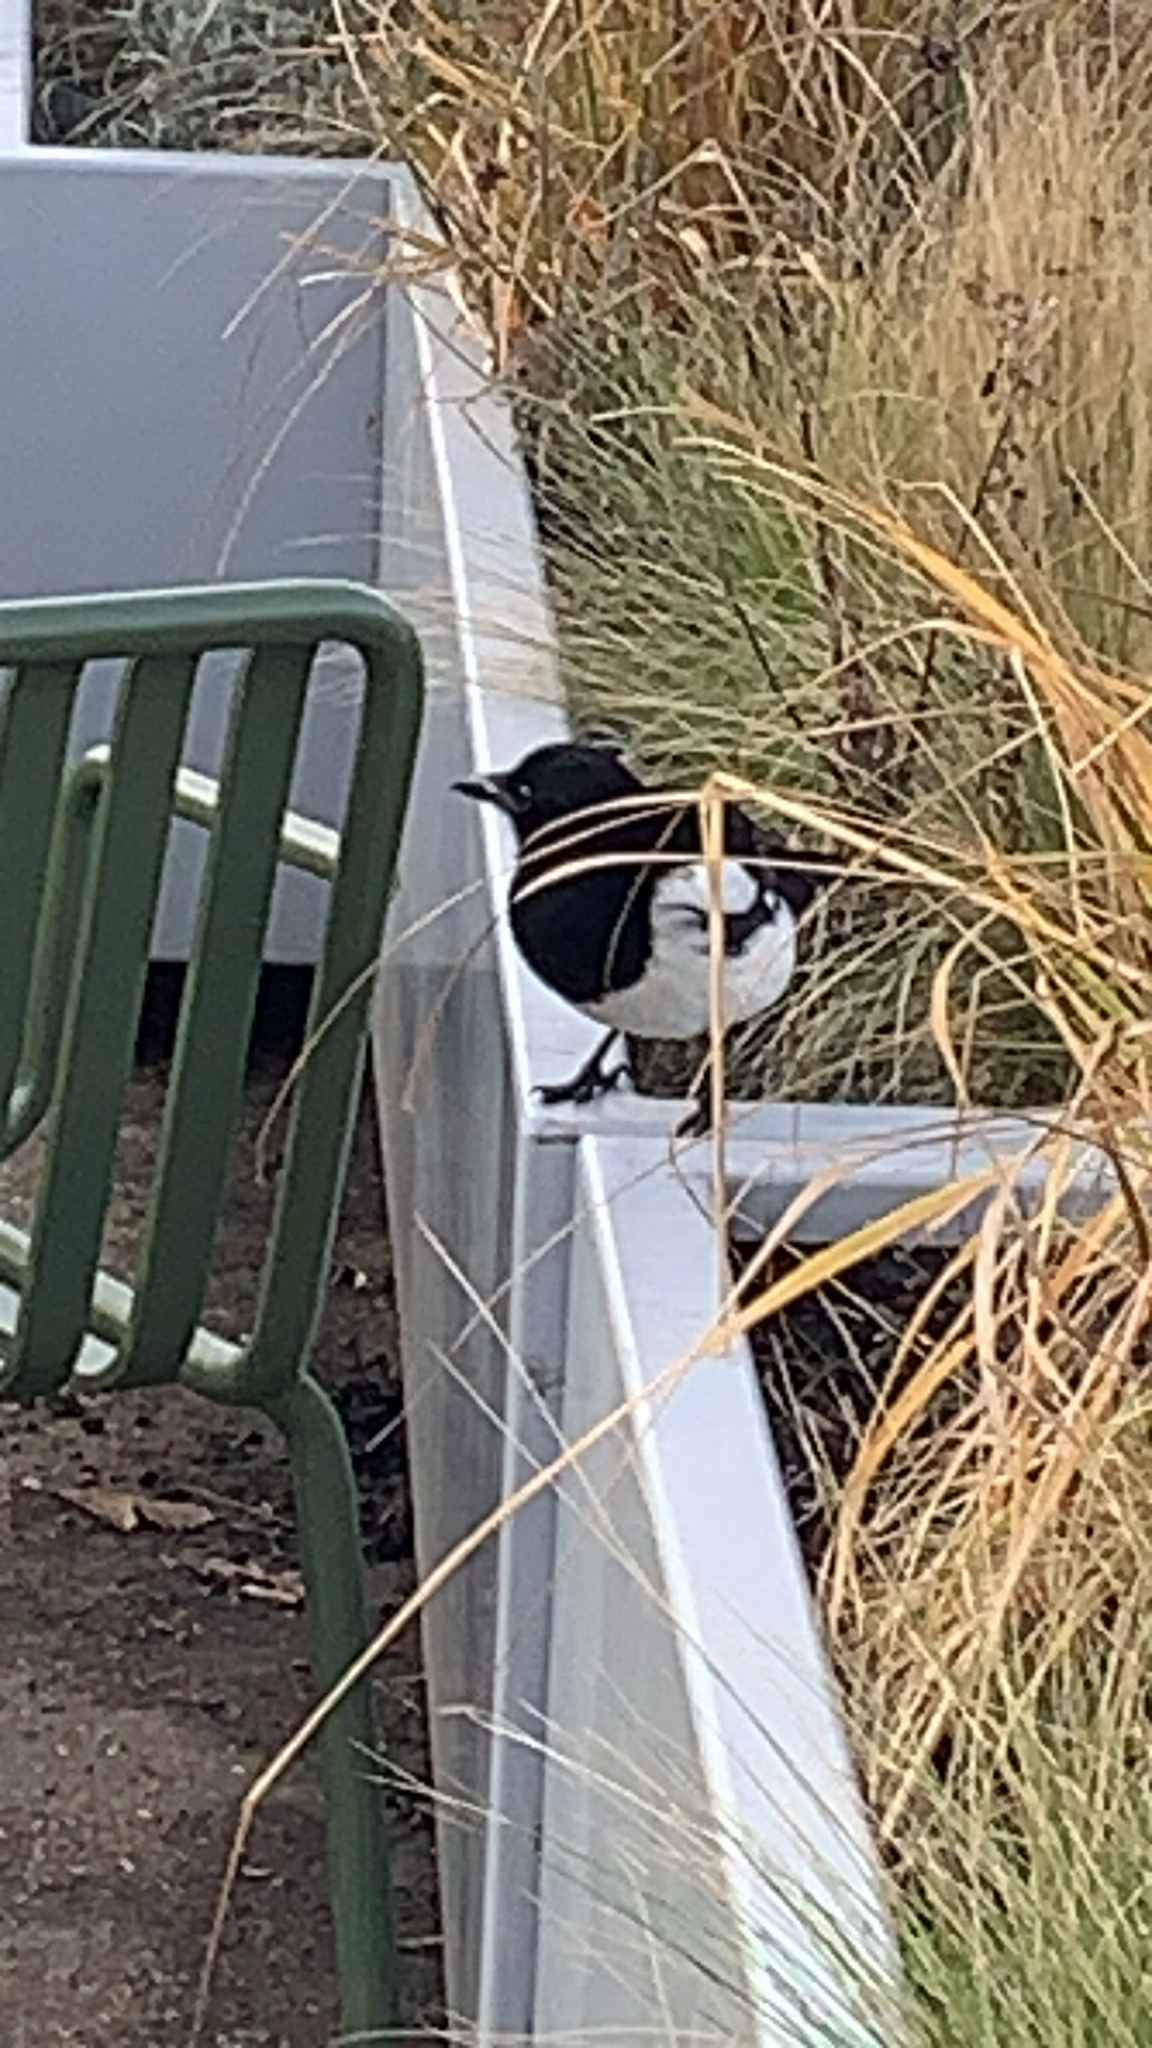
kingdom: Animalia
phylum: Chordata
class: Aves
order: Passeriformes
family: Corvidae
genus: Pica
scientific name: Pica pica
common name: Eurasian magpie
